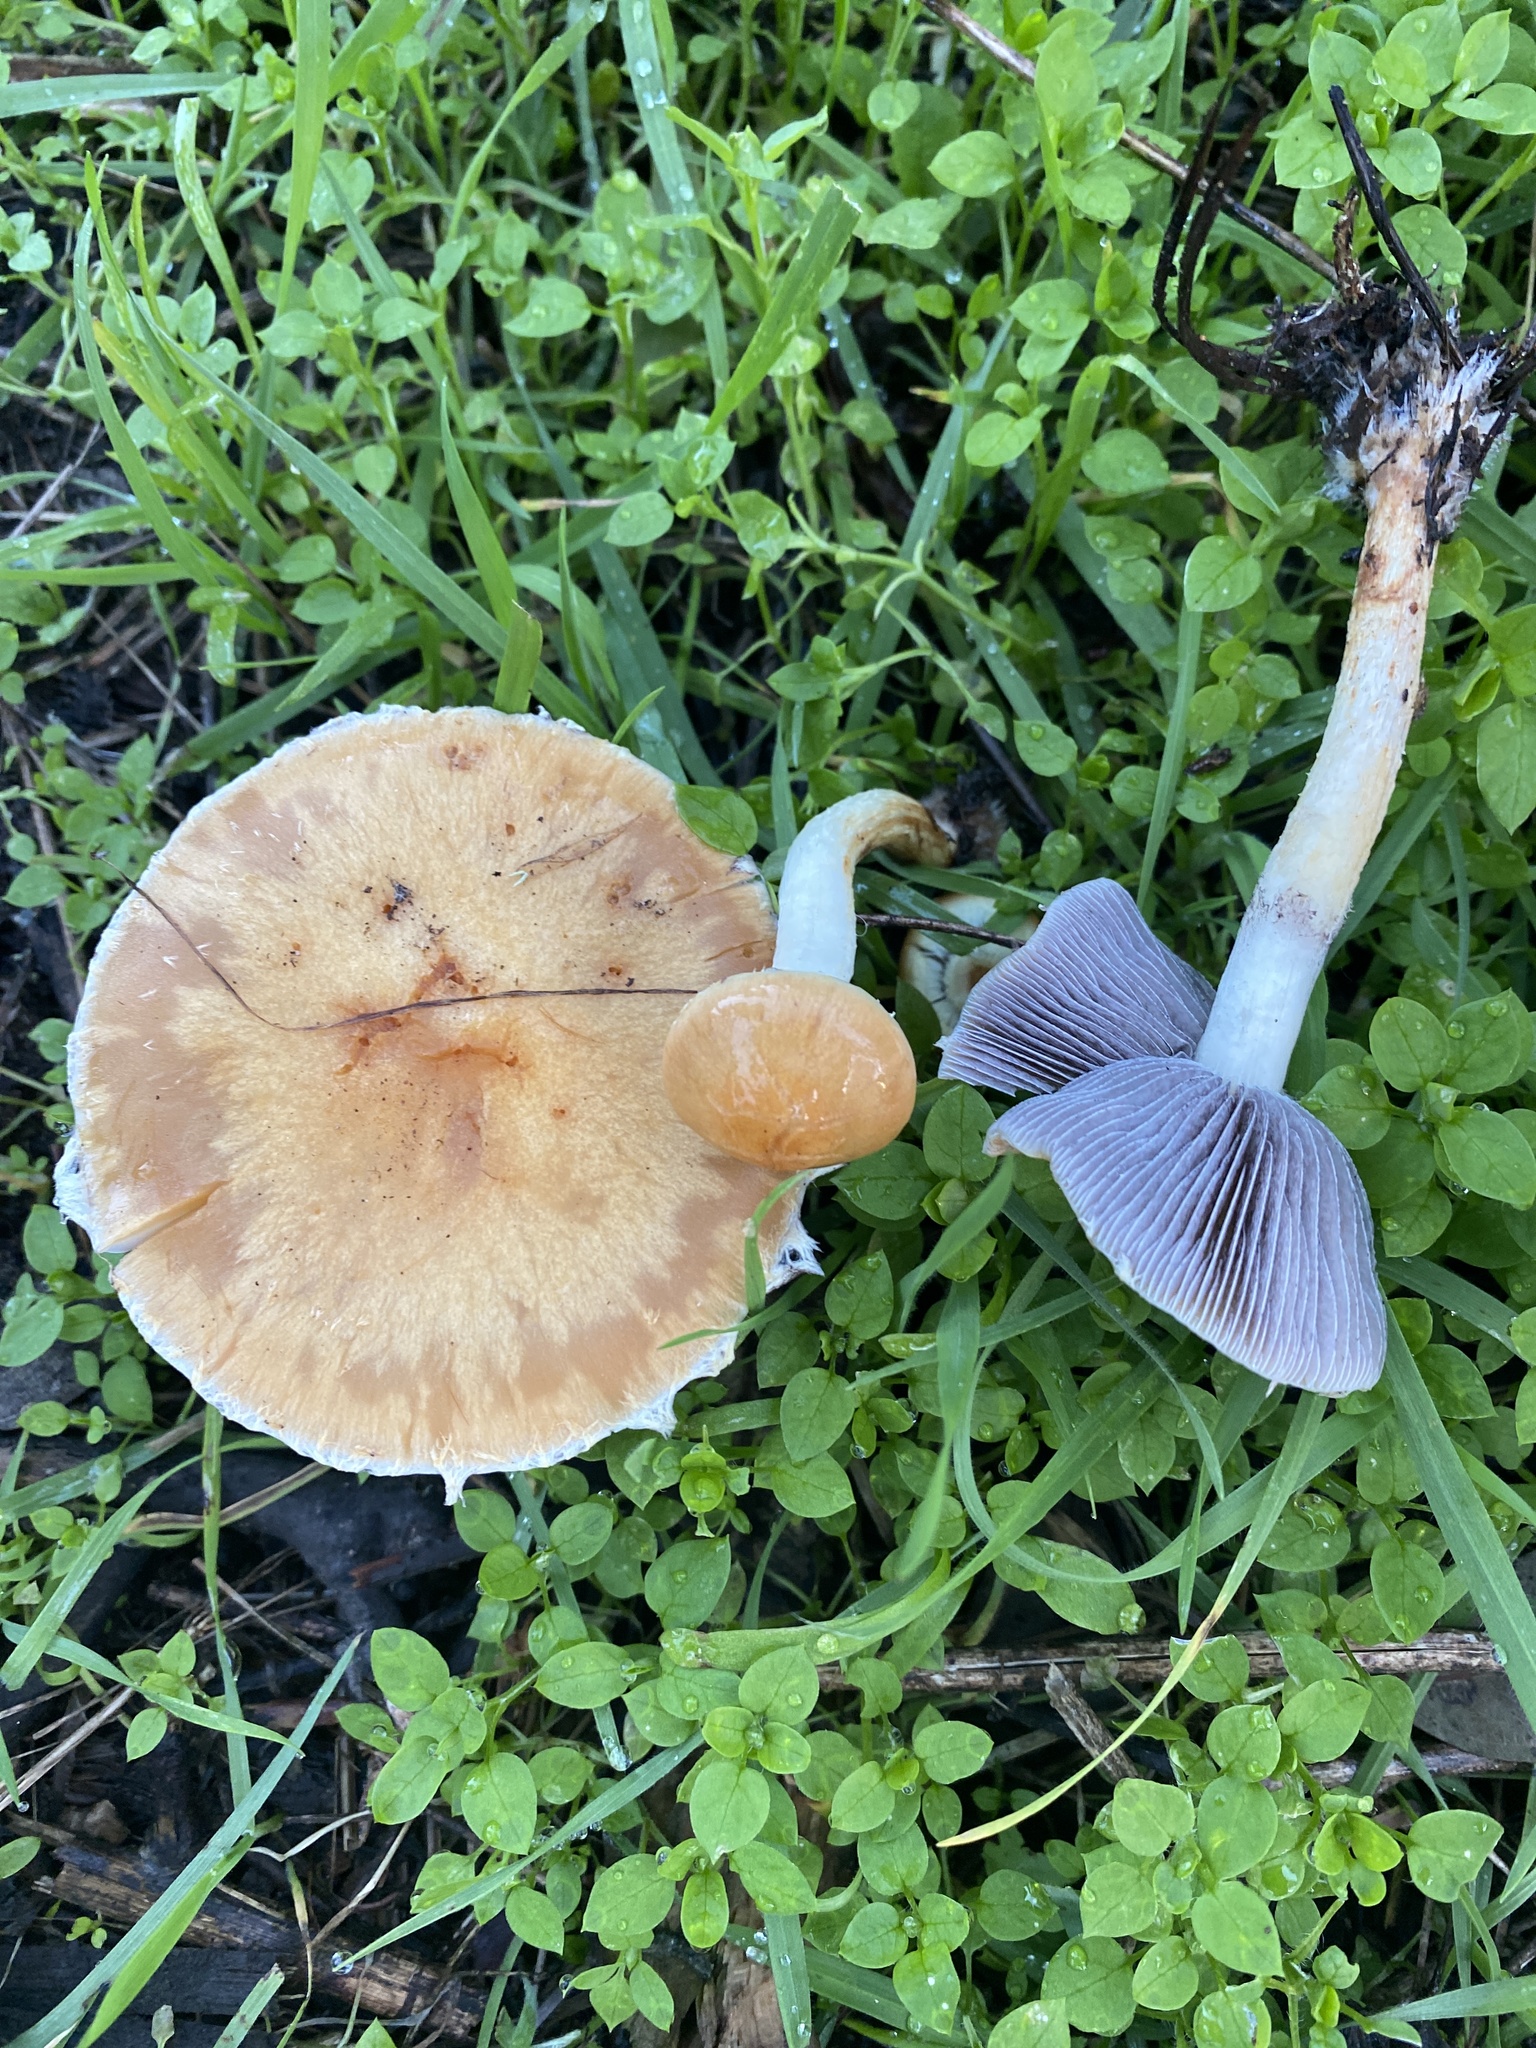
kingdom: Fungi
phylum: Basidiomycota
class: Agaricomycetes
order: Agaricales
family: Strophariaceae
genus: Leratiomyces
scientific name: Leratiomyces percevalii
